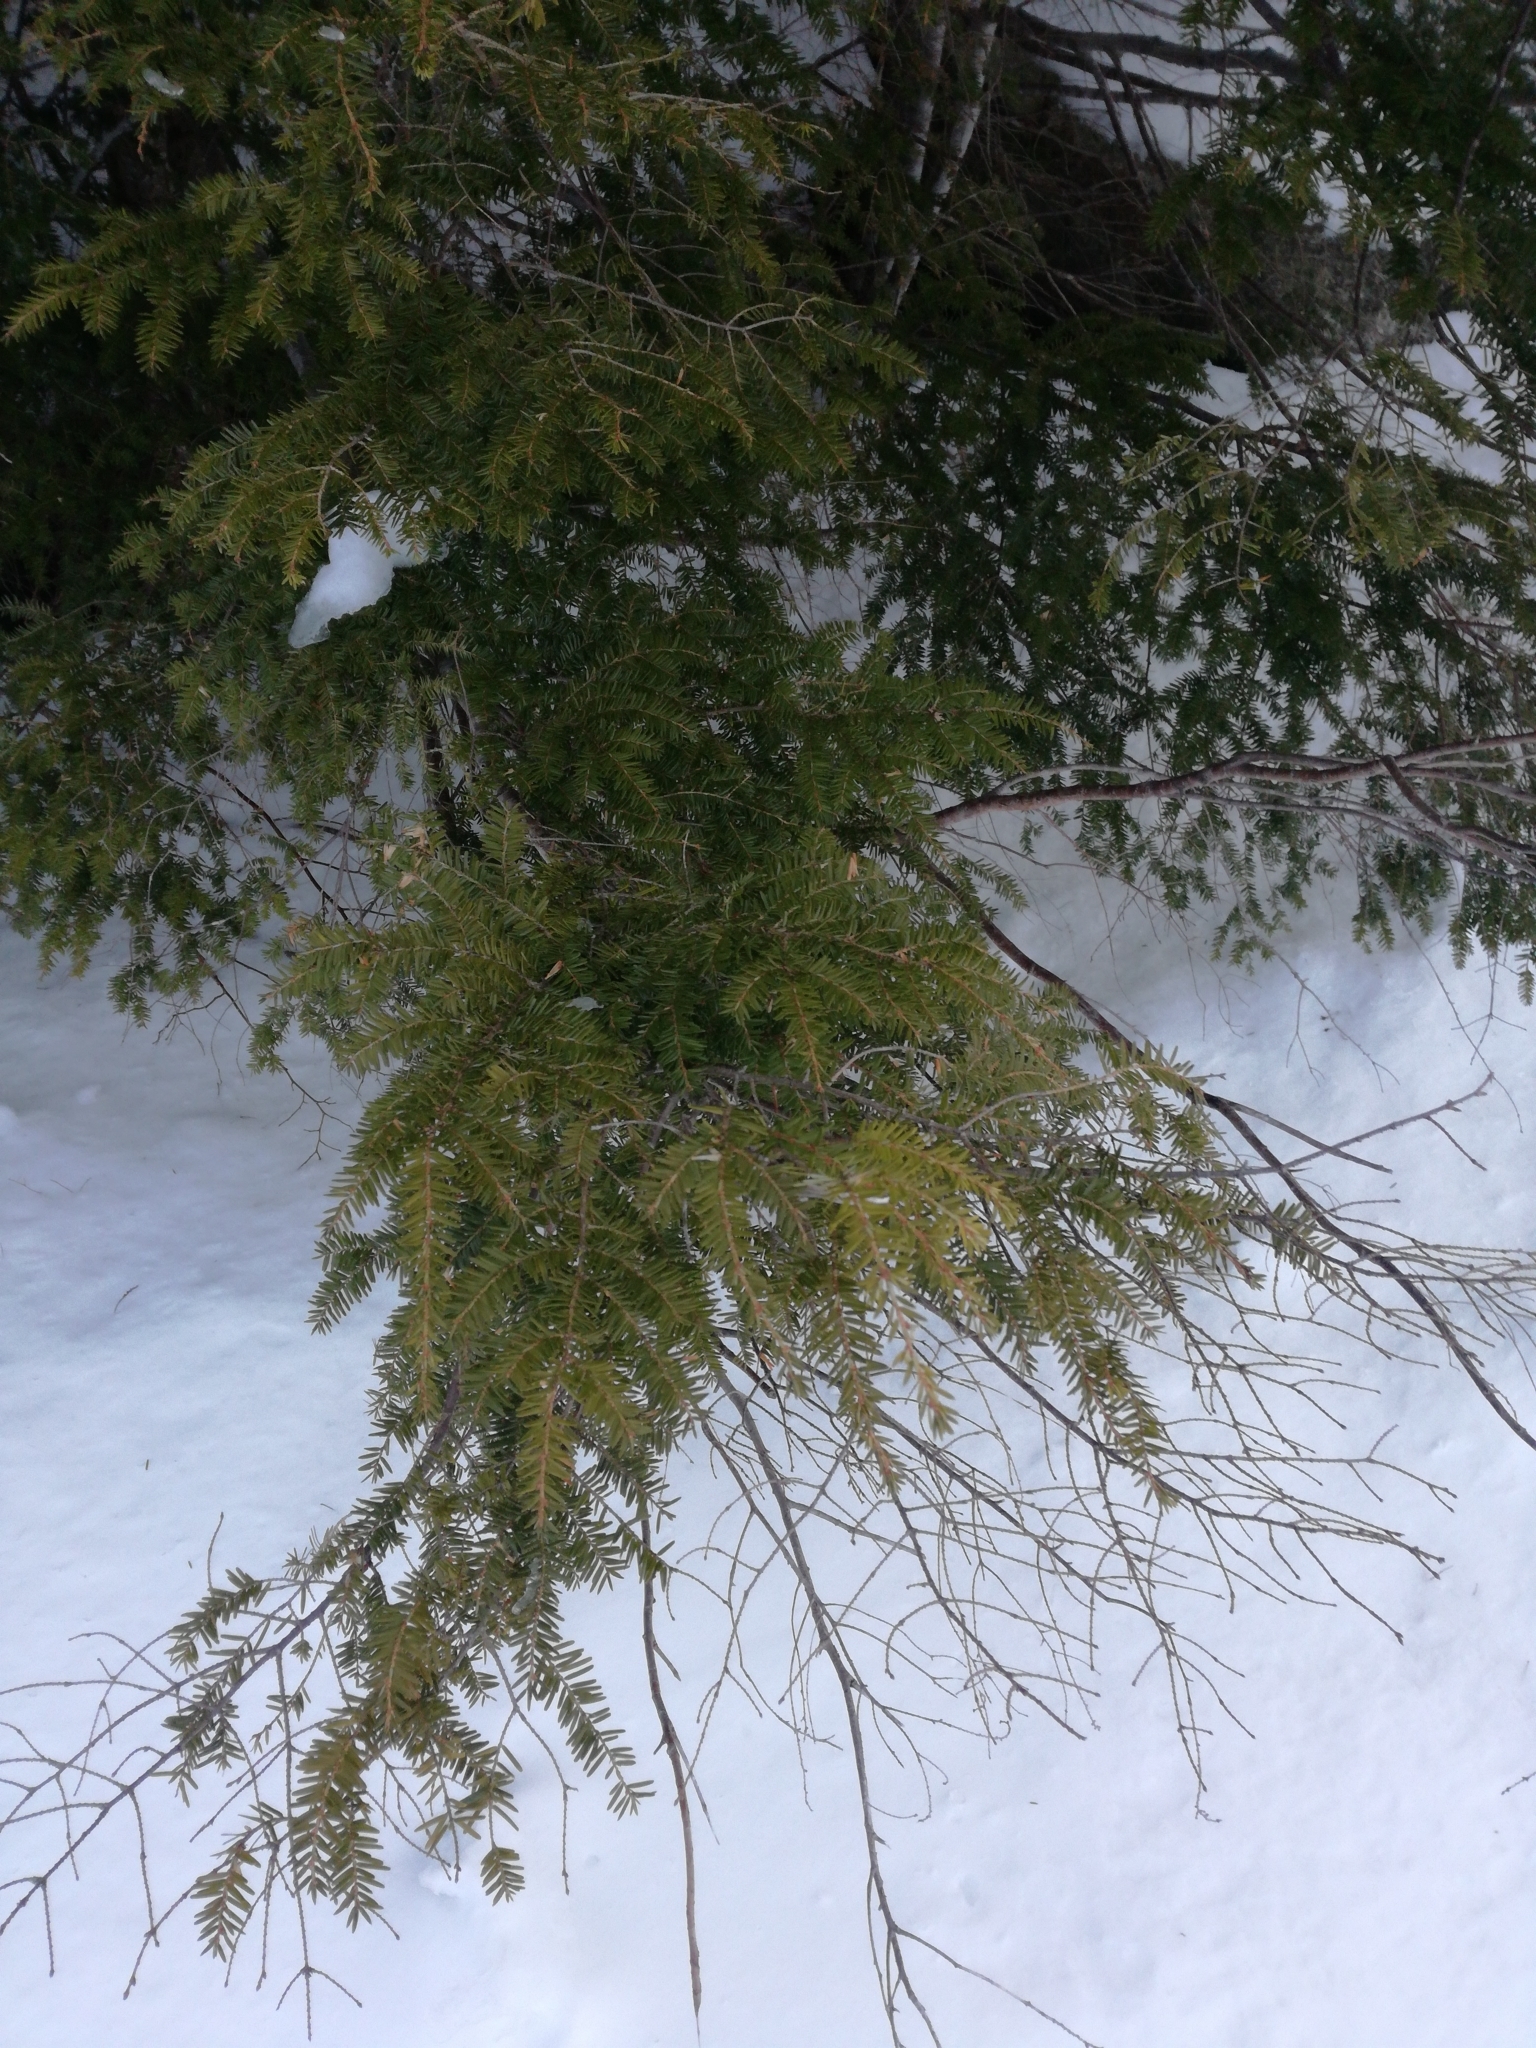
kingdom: Plantae
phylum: Tracheophyta
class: Pinopsida
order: Pinales
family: Pinaceae
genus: Tsuga
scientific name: Tsuga canadensis
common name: Eastern hemlock
